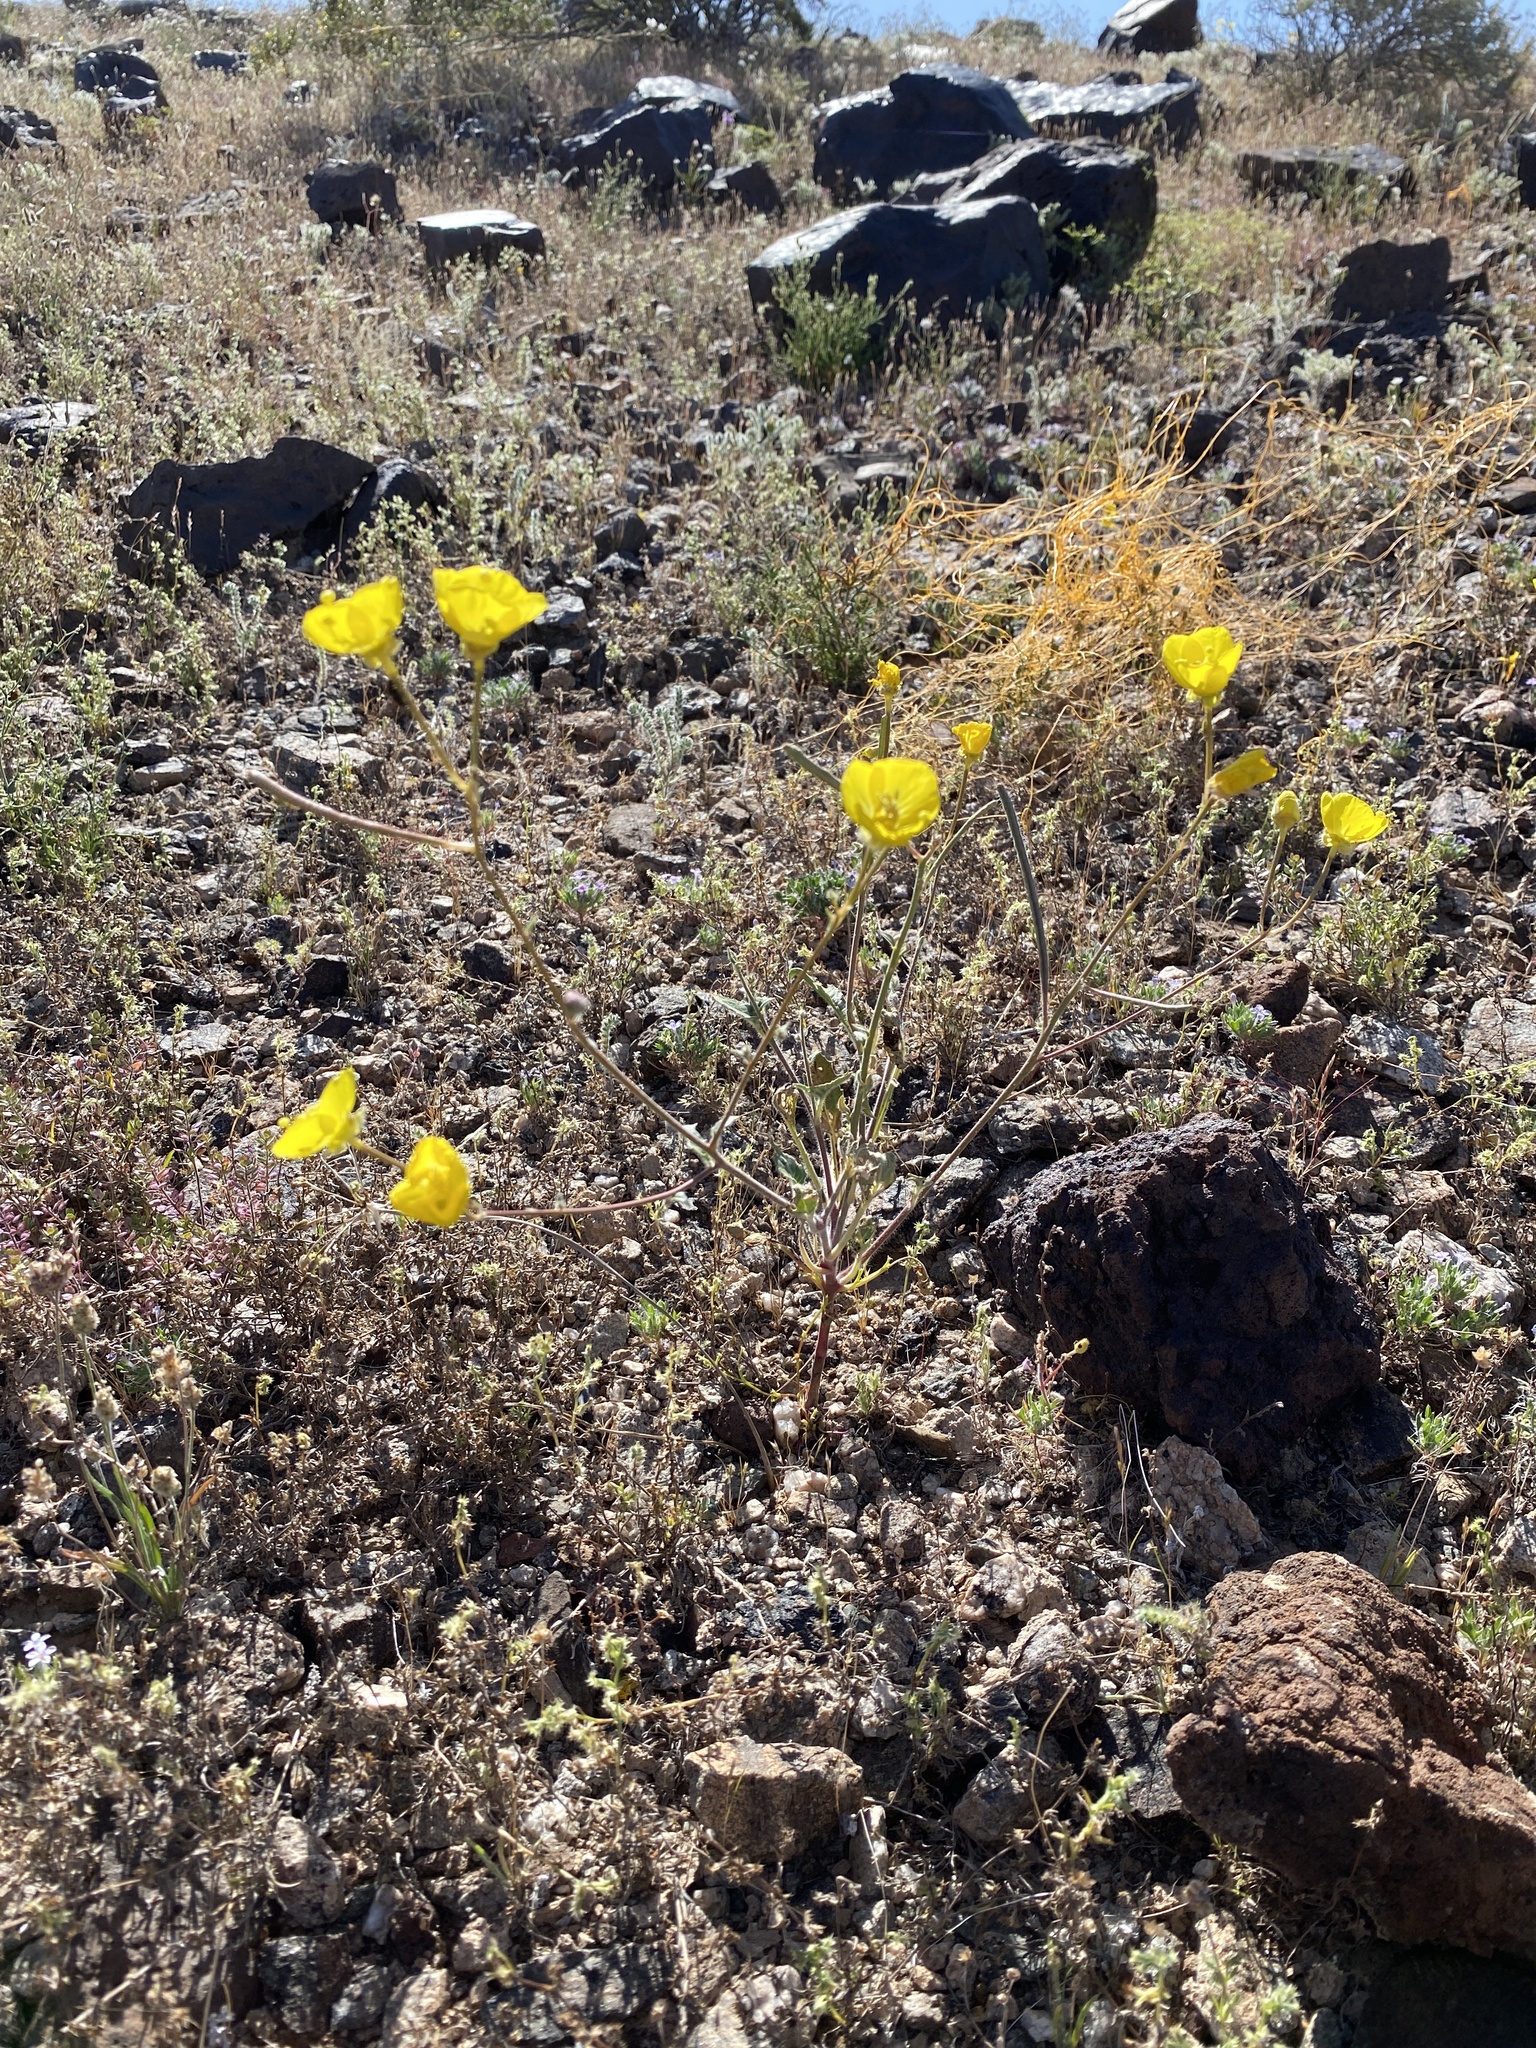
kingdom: Plantae
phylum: Tracheophyta
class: Magnoliopsida
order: Myrtales
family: Onagraceae
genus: Chylismia
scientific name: Chylismia brevipes
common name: Yellow cups
